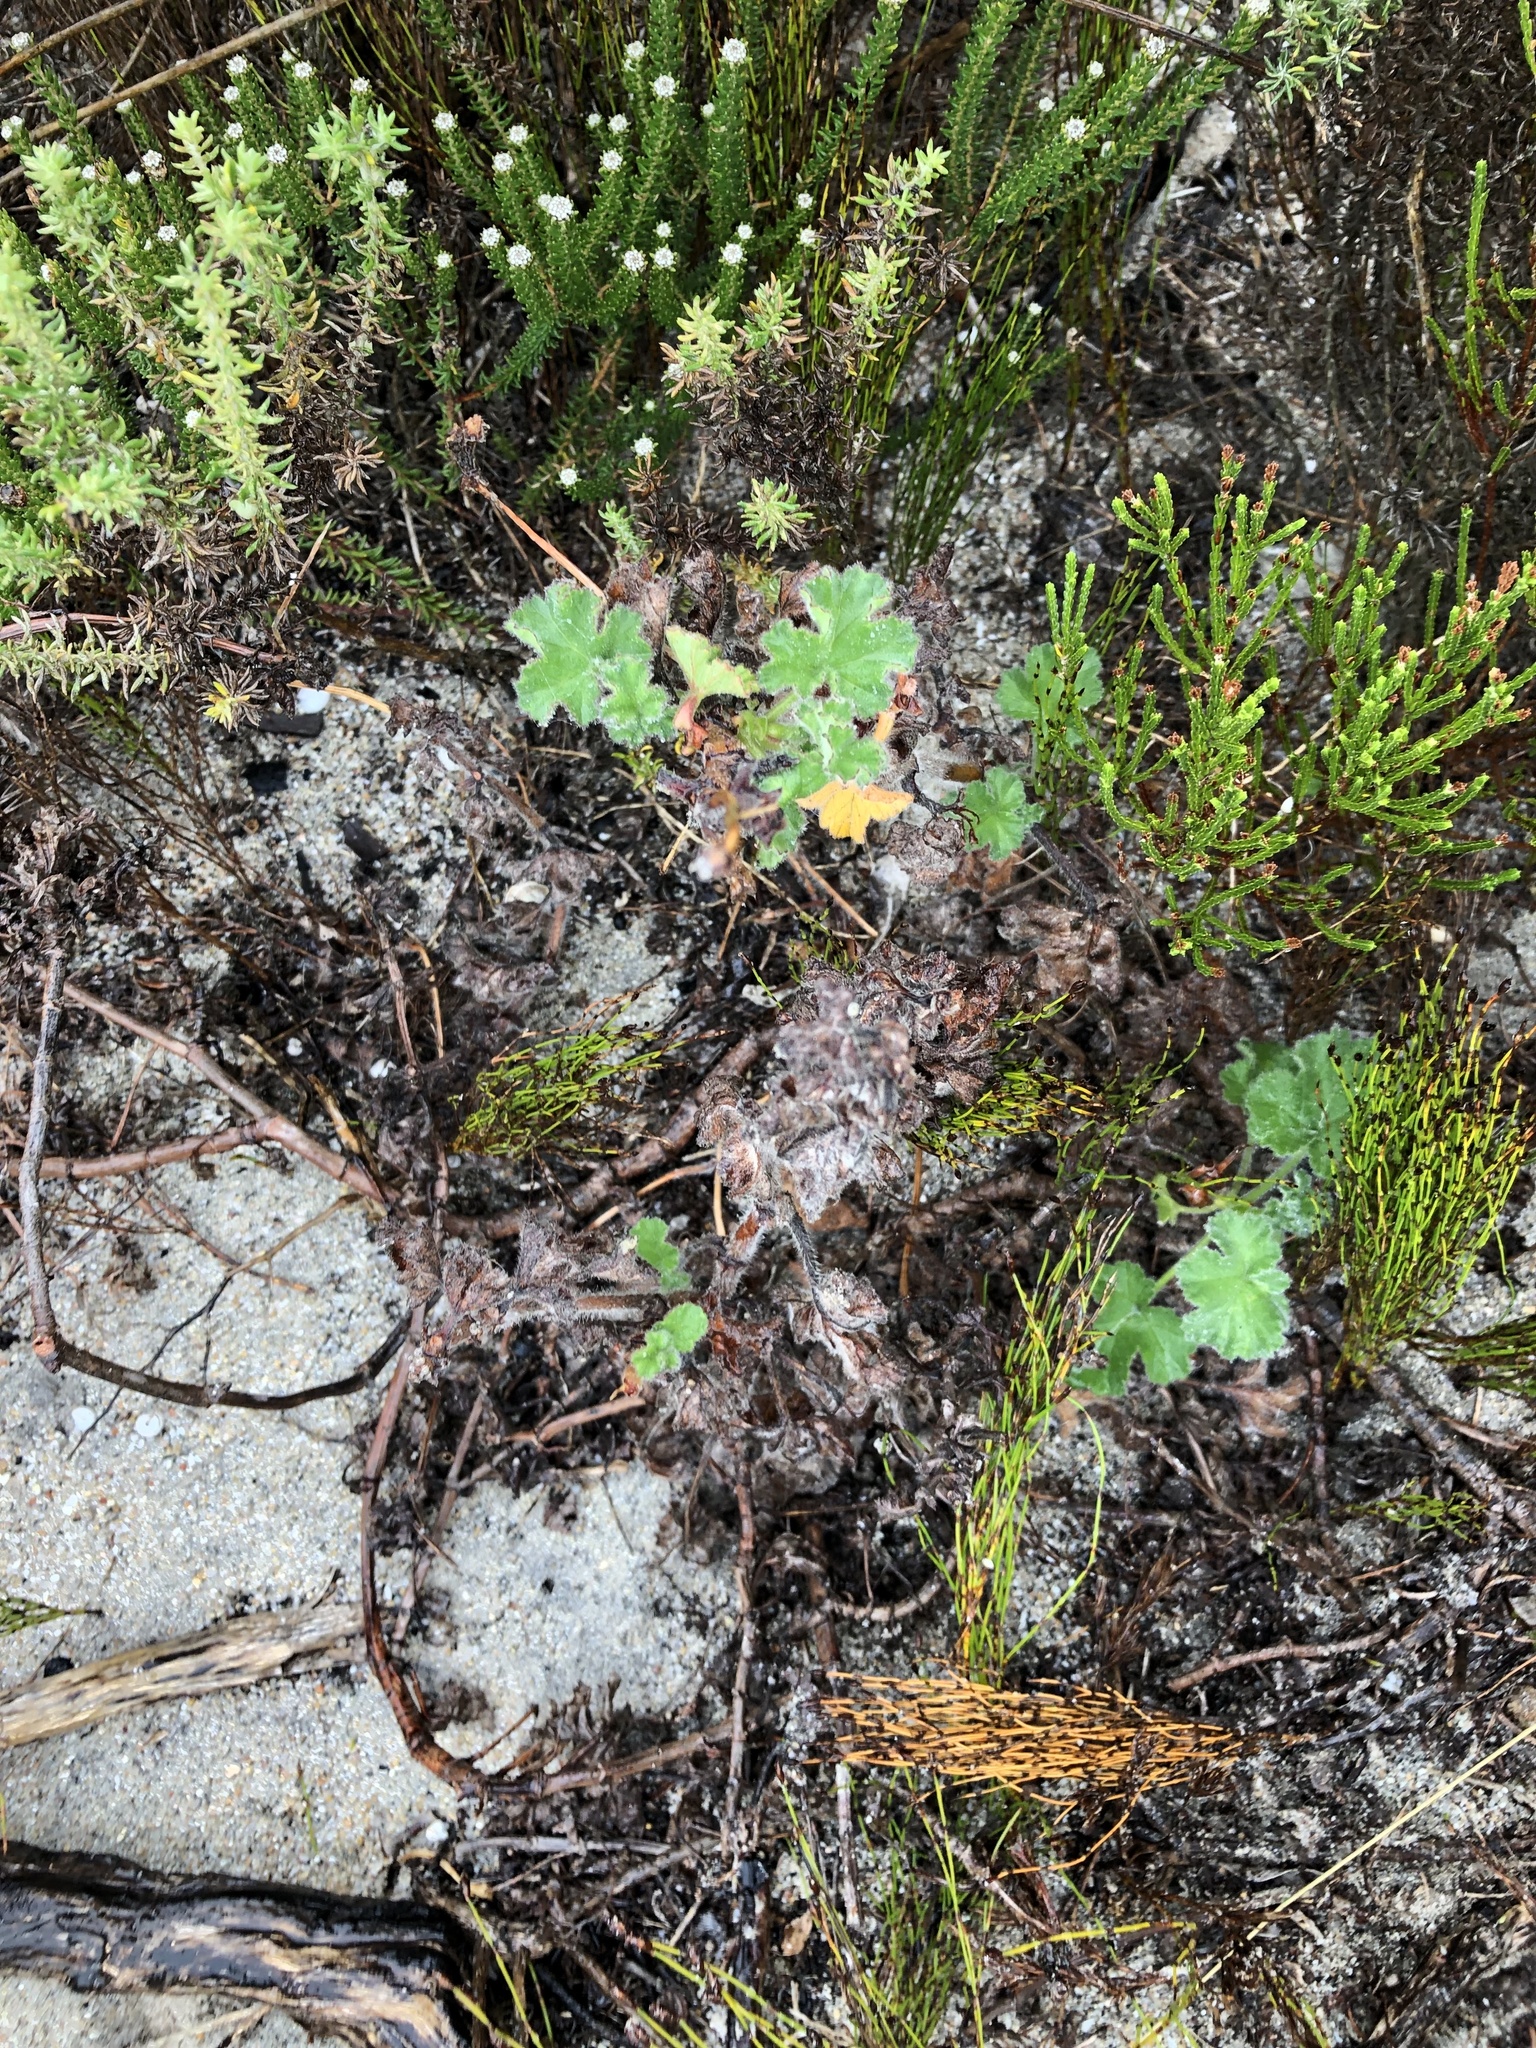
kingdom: Plantae
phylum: Tracheophyta
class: Magnoliopsida
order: Geraniales
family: Geraniaceae
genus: Pelargonium
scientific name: Pelargonium capitatum
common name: Rose scented geranium
